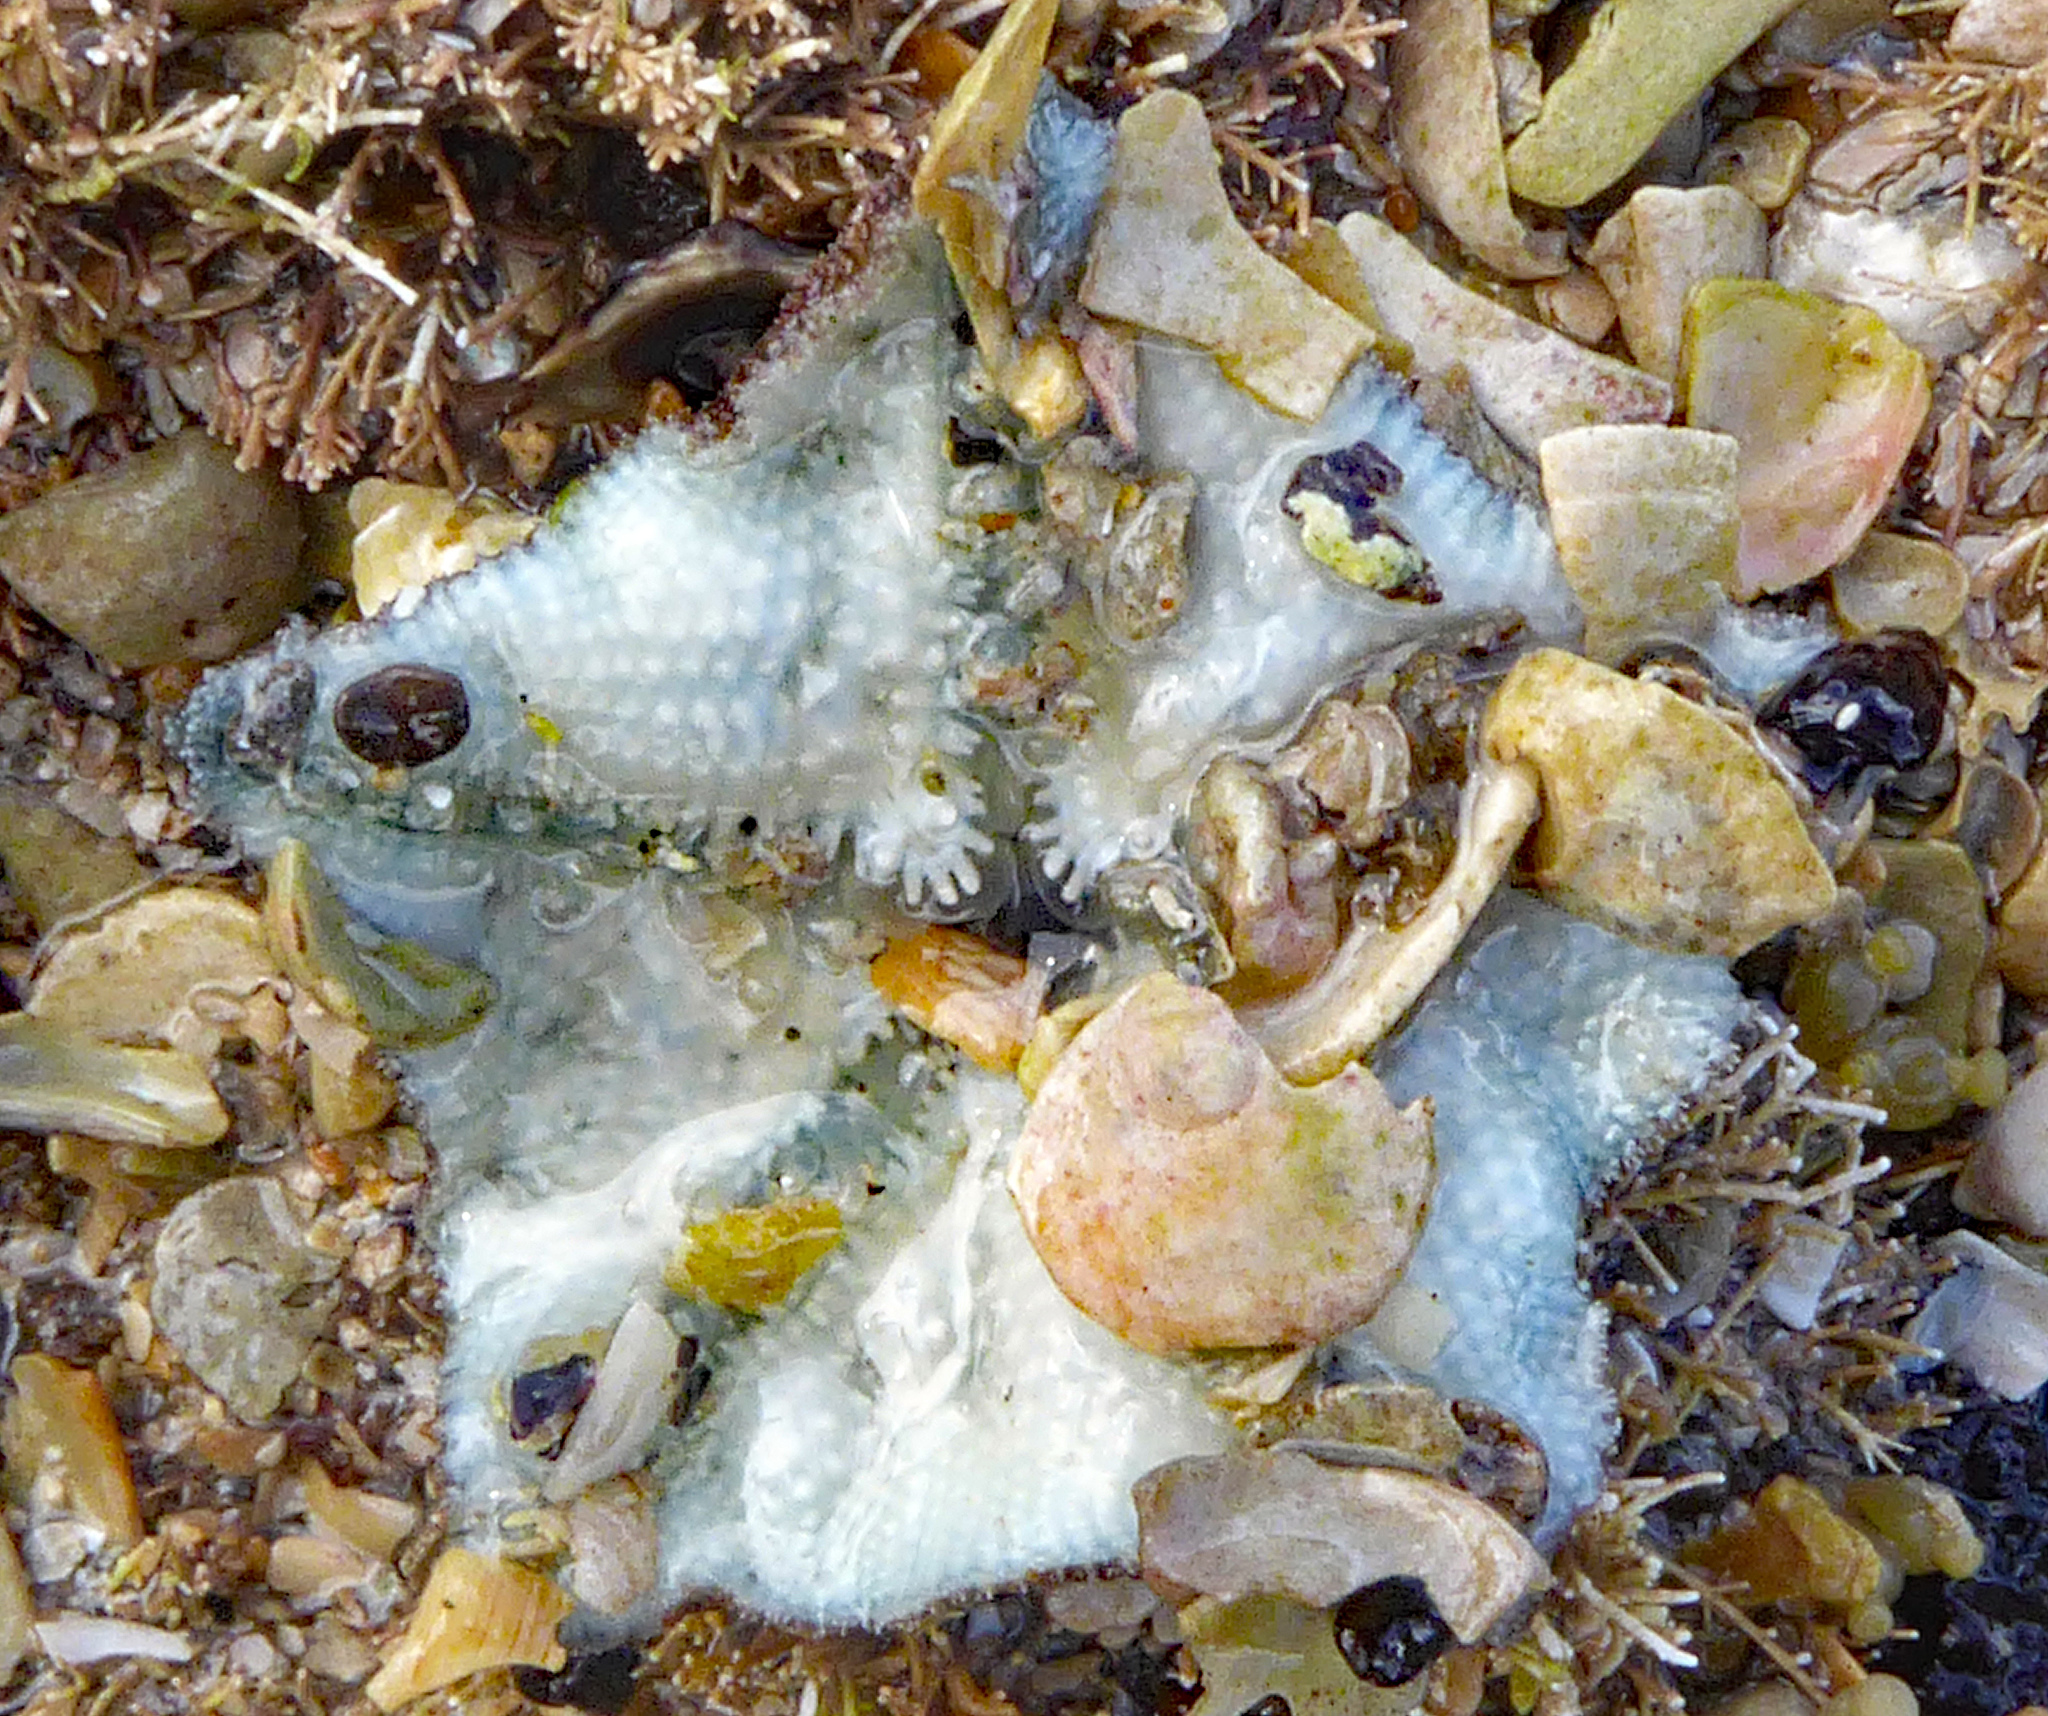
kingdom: Animalia
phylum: Echinodermata
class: Asteroidea
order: Valvatida
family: Asterinidae
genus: Patiriella
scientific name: Patiriella regularis
